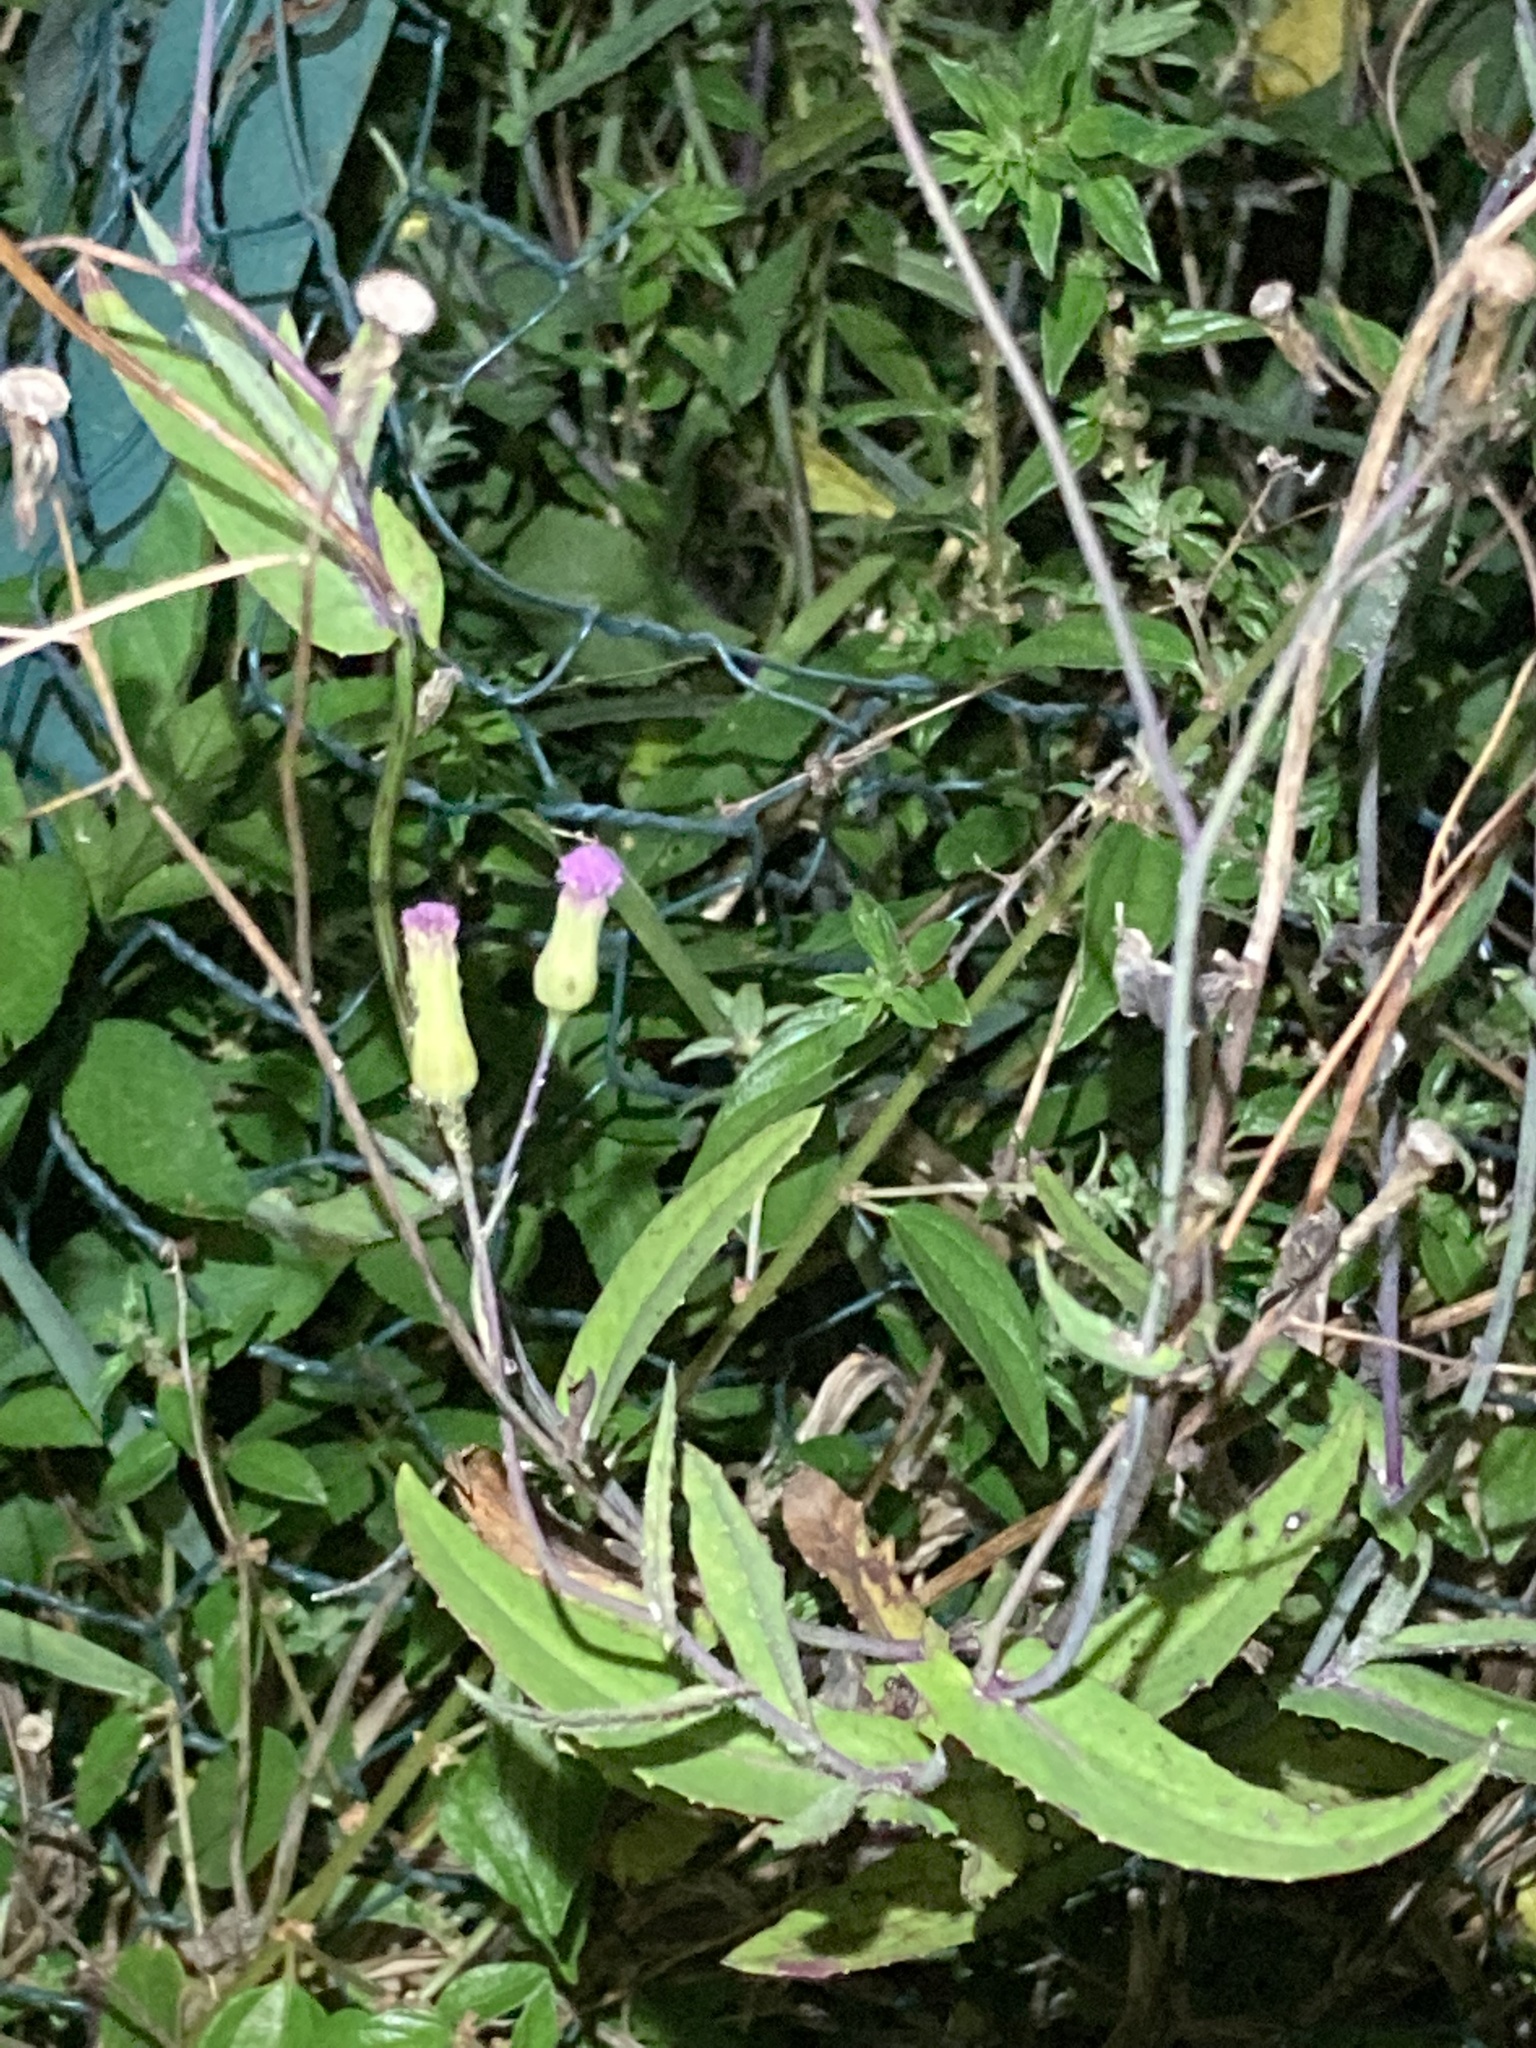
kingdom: Plantae
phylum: Tracheophyta
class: Magnoliopsida
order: Asterales
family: Asteraceae
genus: Emilia
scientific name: Emilia sonchifolia
